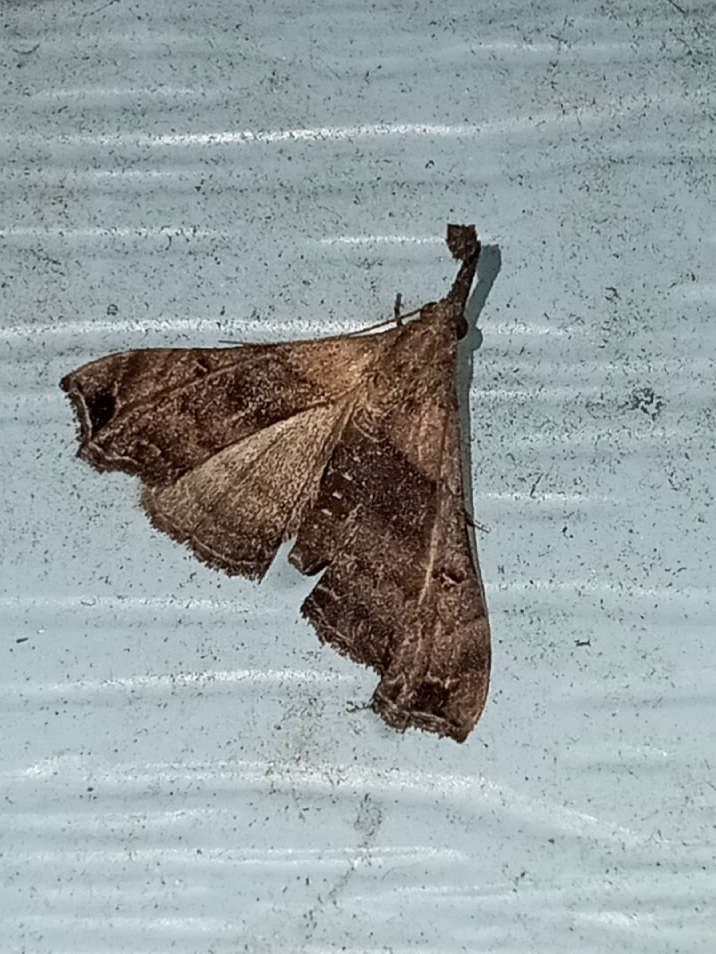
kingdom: Animalia
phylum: Arthropoda
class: Insecta
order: Lepidoptera
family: Erebidae
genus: Palthis
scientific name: Palthis asopialis
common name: Faint-spotted palthis moth
